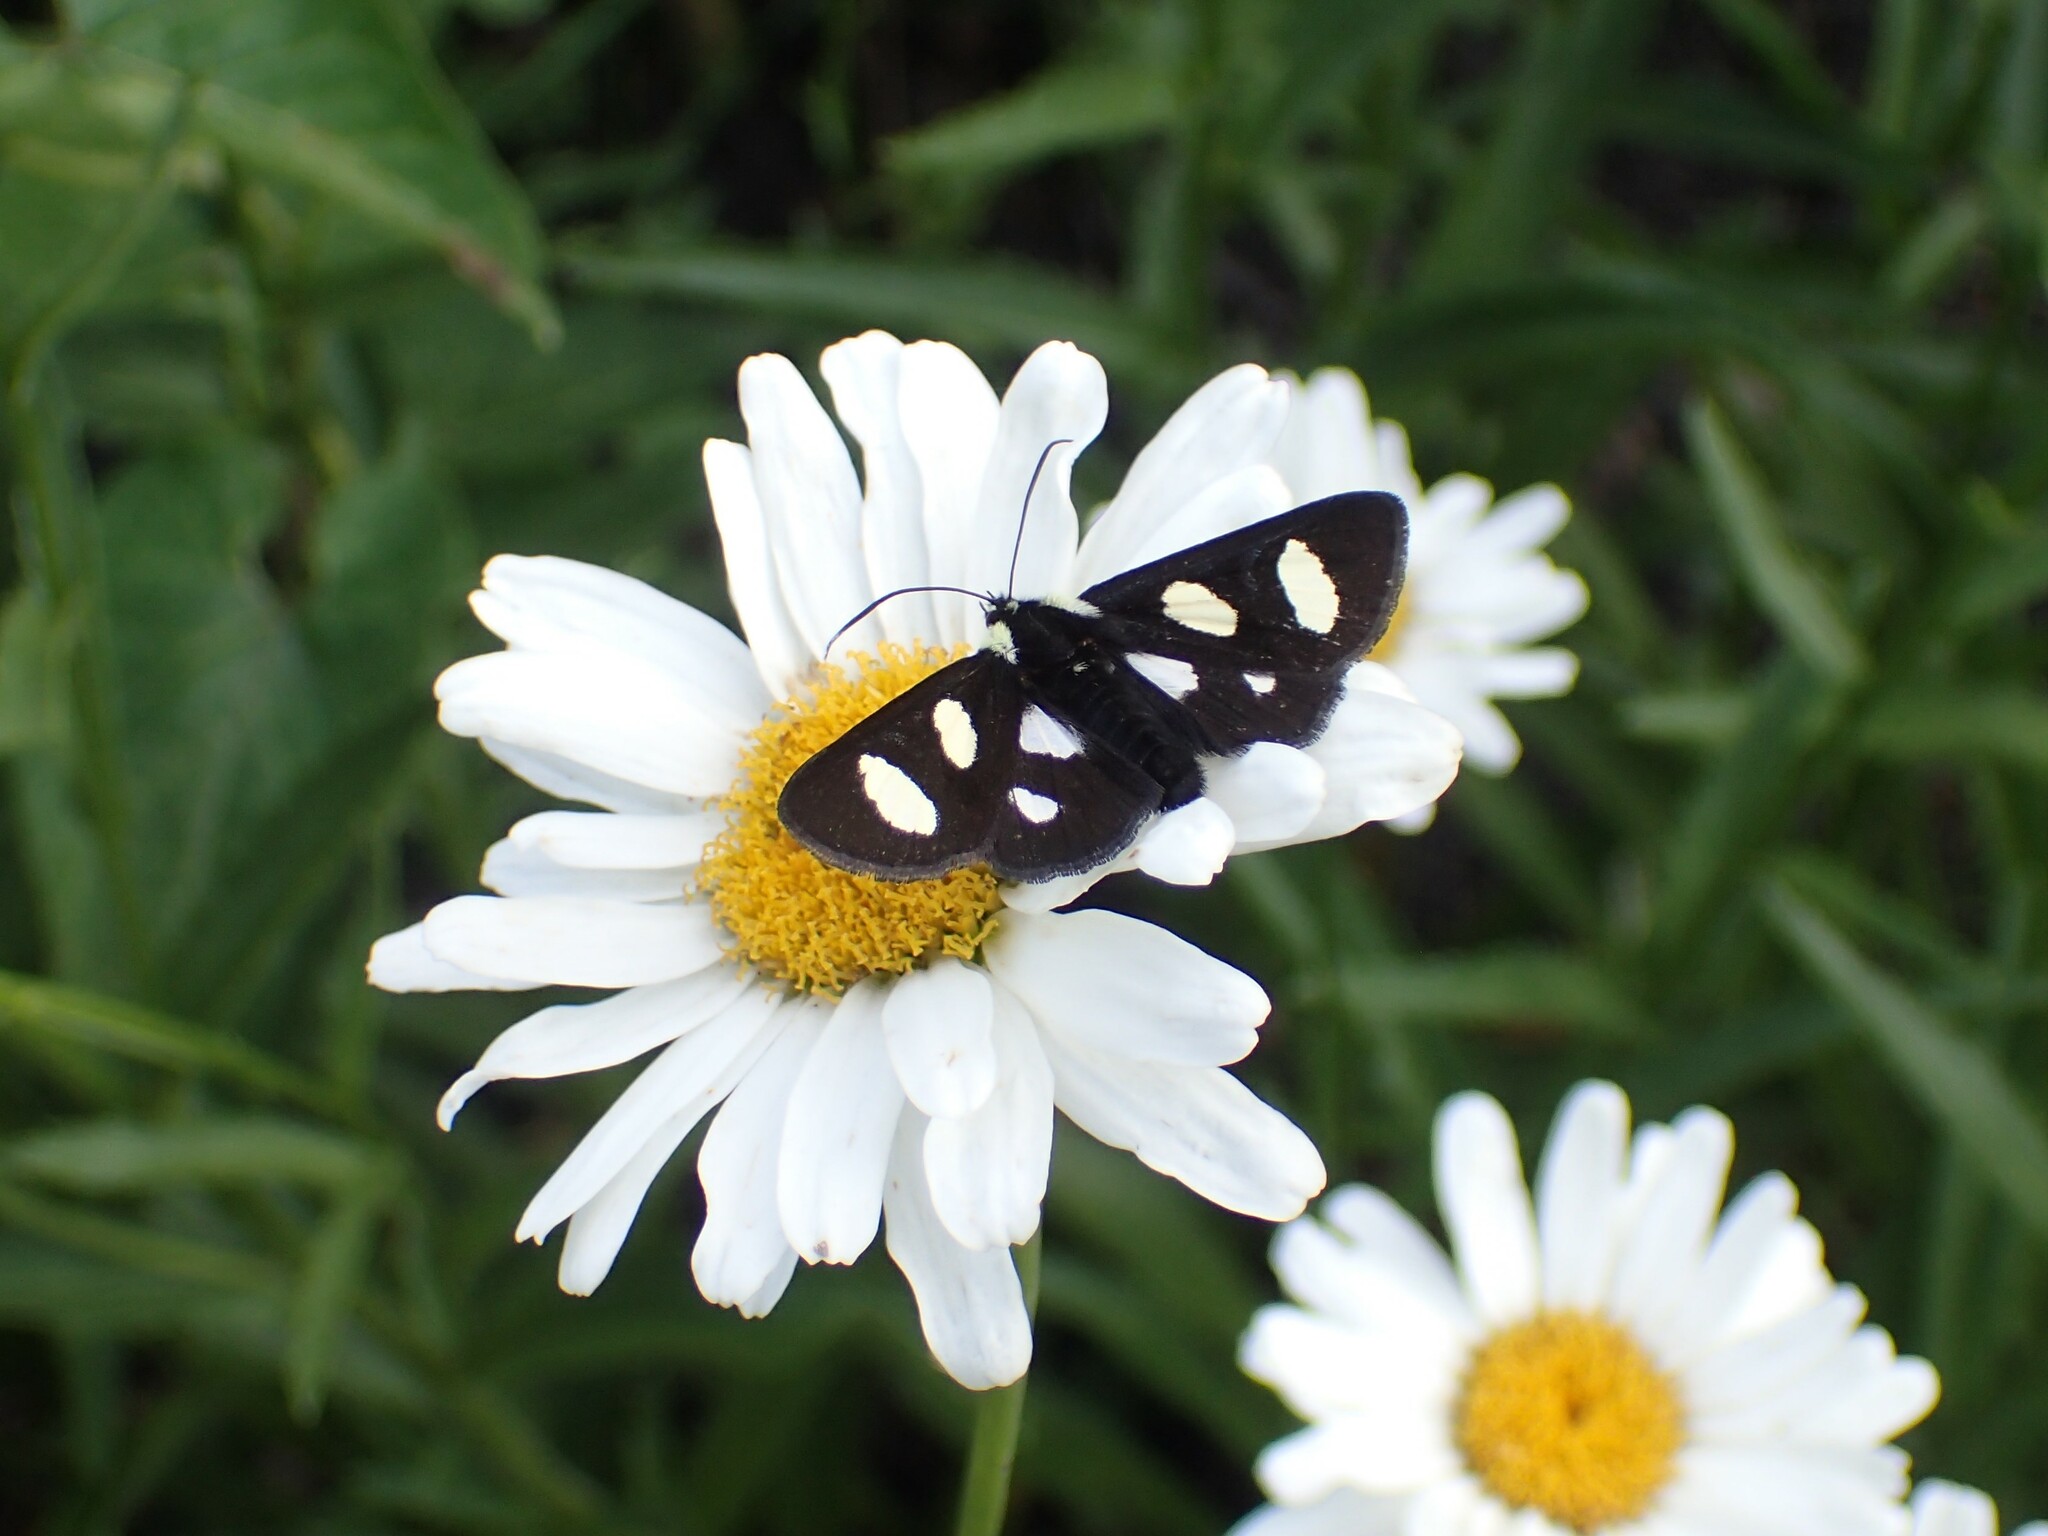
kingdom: Animalia
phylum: Arthropoda
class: Insecta
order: Lepidoptera
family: Noctuidae
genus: Alypia
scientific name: Alypia octomaculata
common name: Eight-spotted forester
